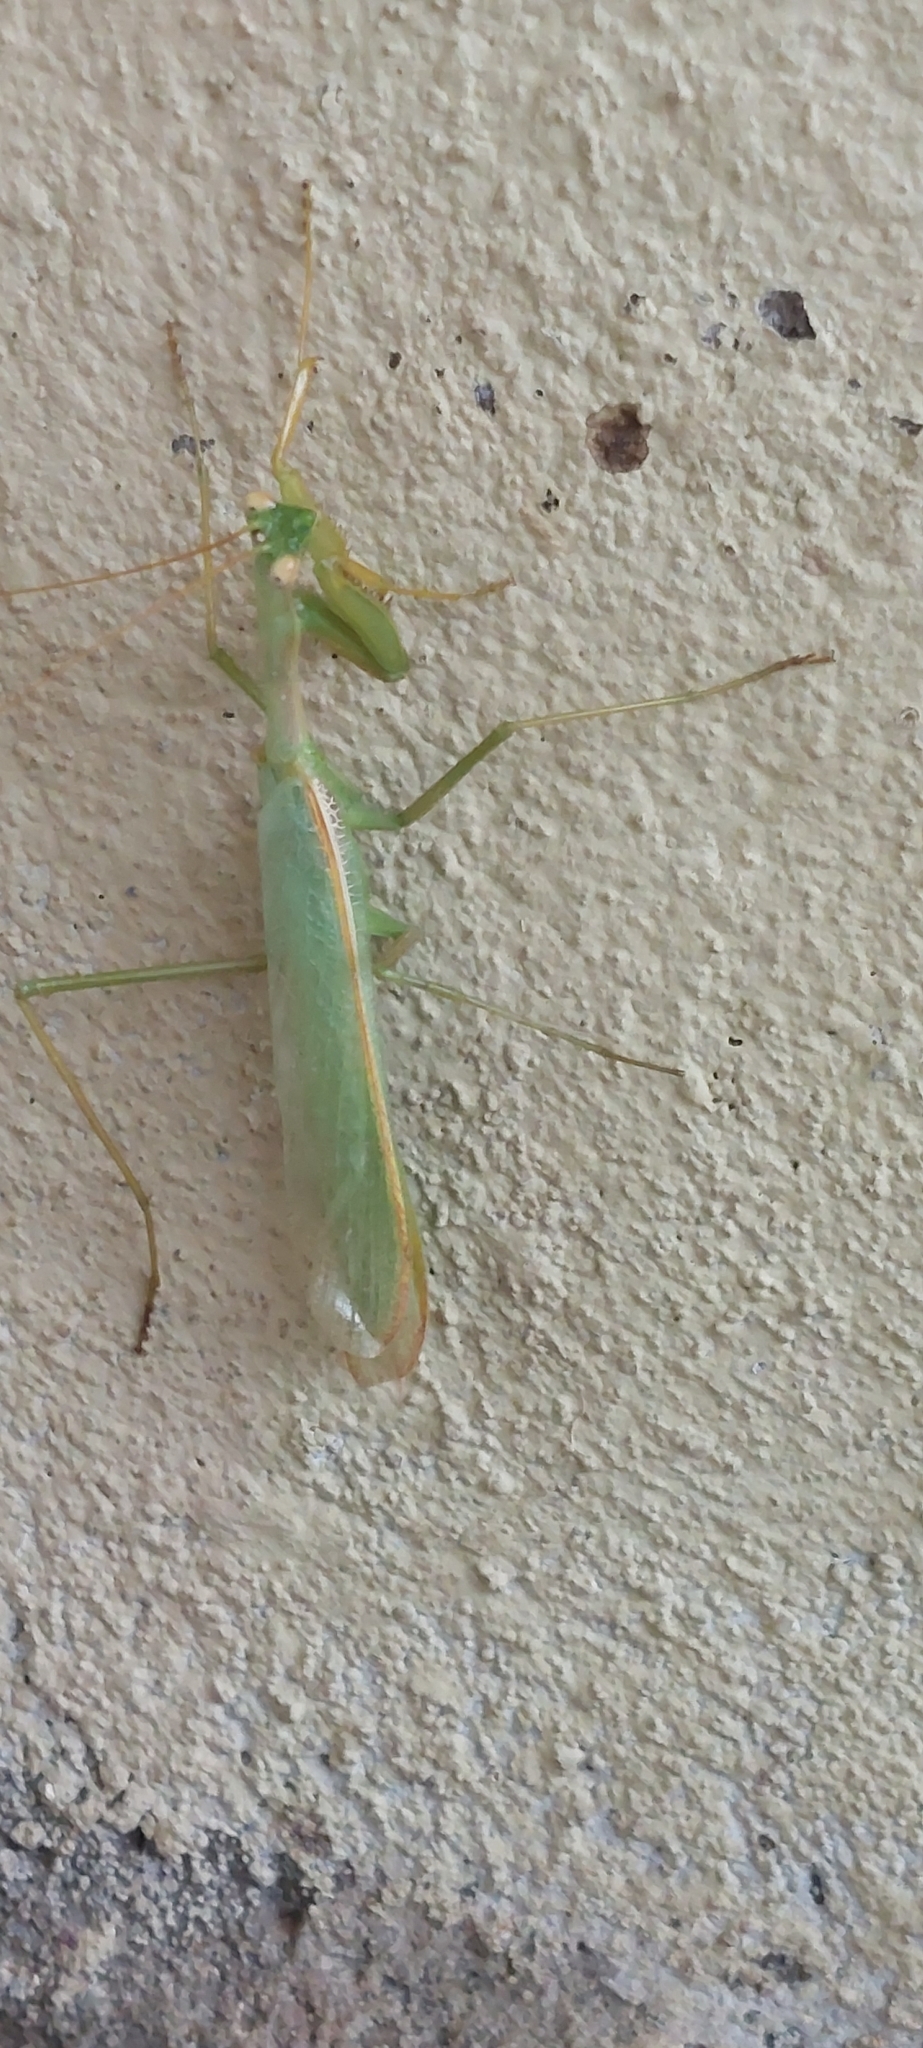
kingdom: Animalia
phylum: Arthropoda
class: Insecta
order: Mantodea
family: Coptopterygidae
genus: Coptopteryx
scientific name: Coptopteryx argentina
